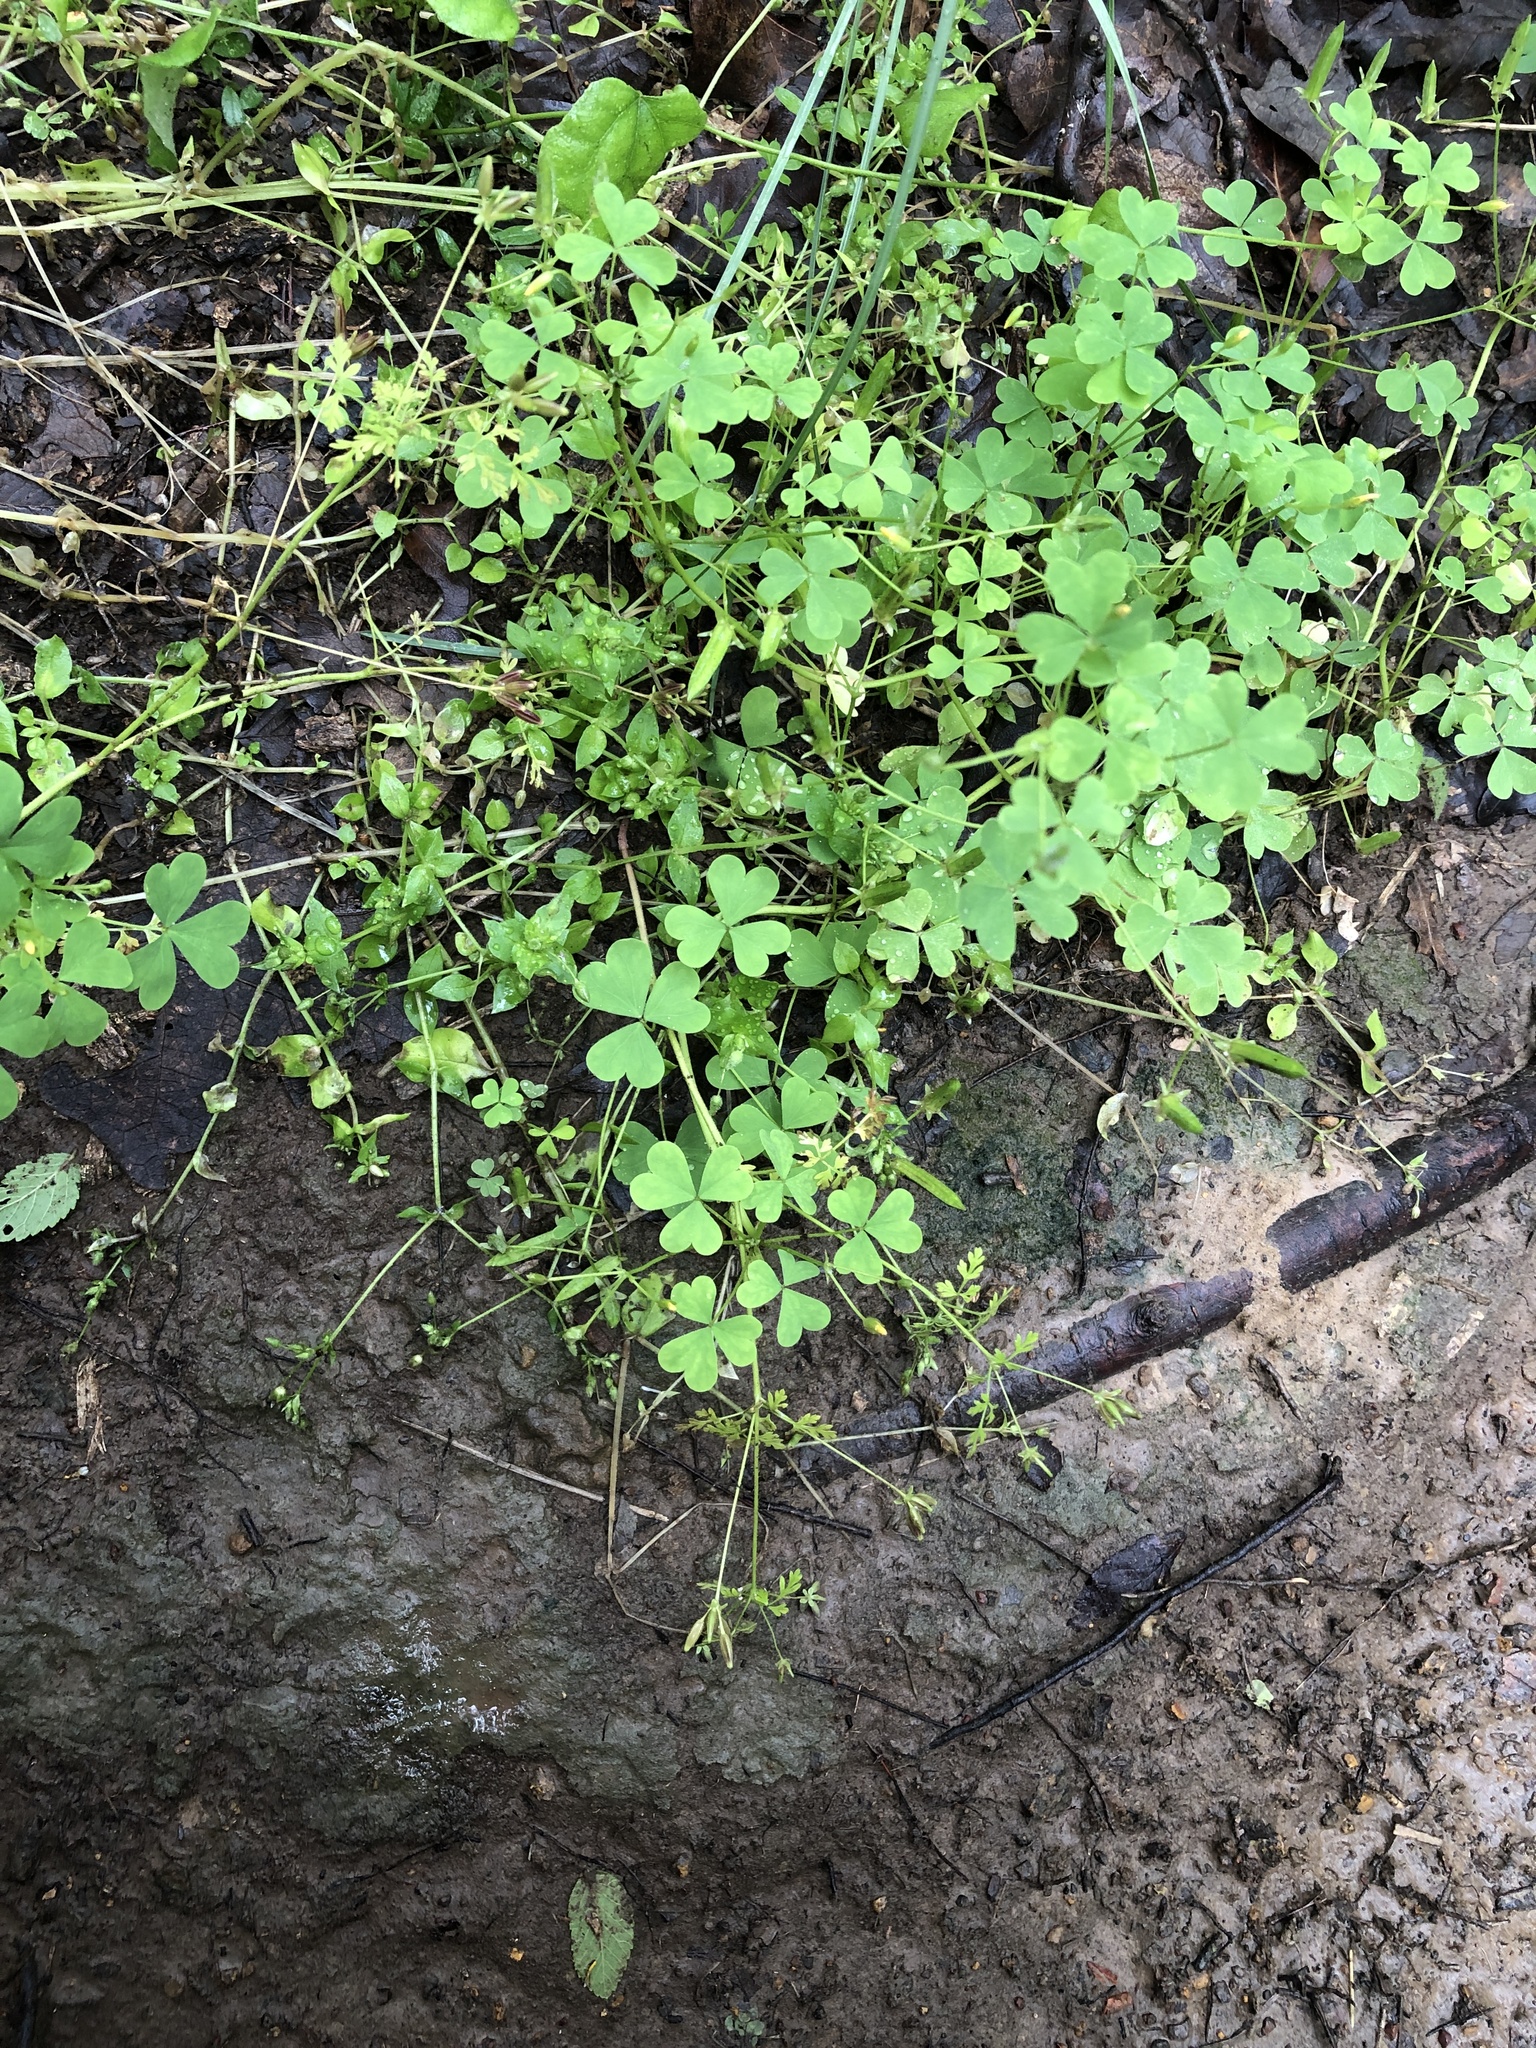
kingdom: Plantae
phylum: Tracheophyta
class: Magnoliopsida
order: Apiales
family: Apiaceae
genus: Chaerophyllum
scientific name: Chaerophyllum tainturieri
